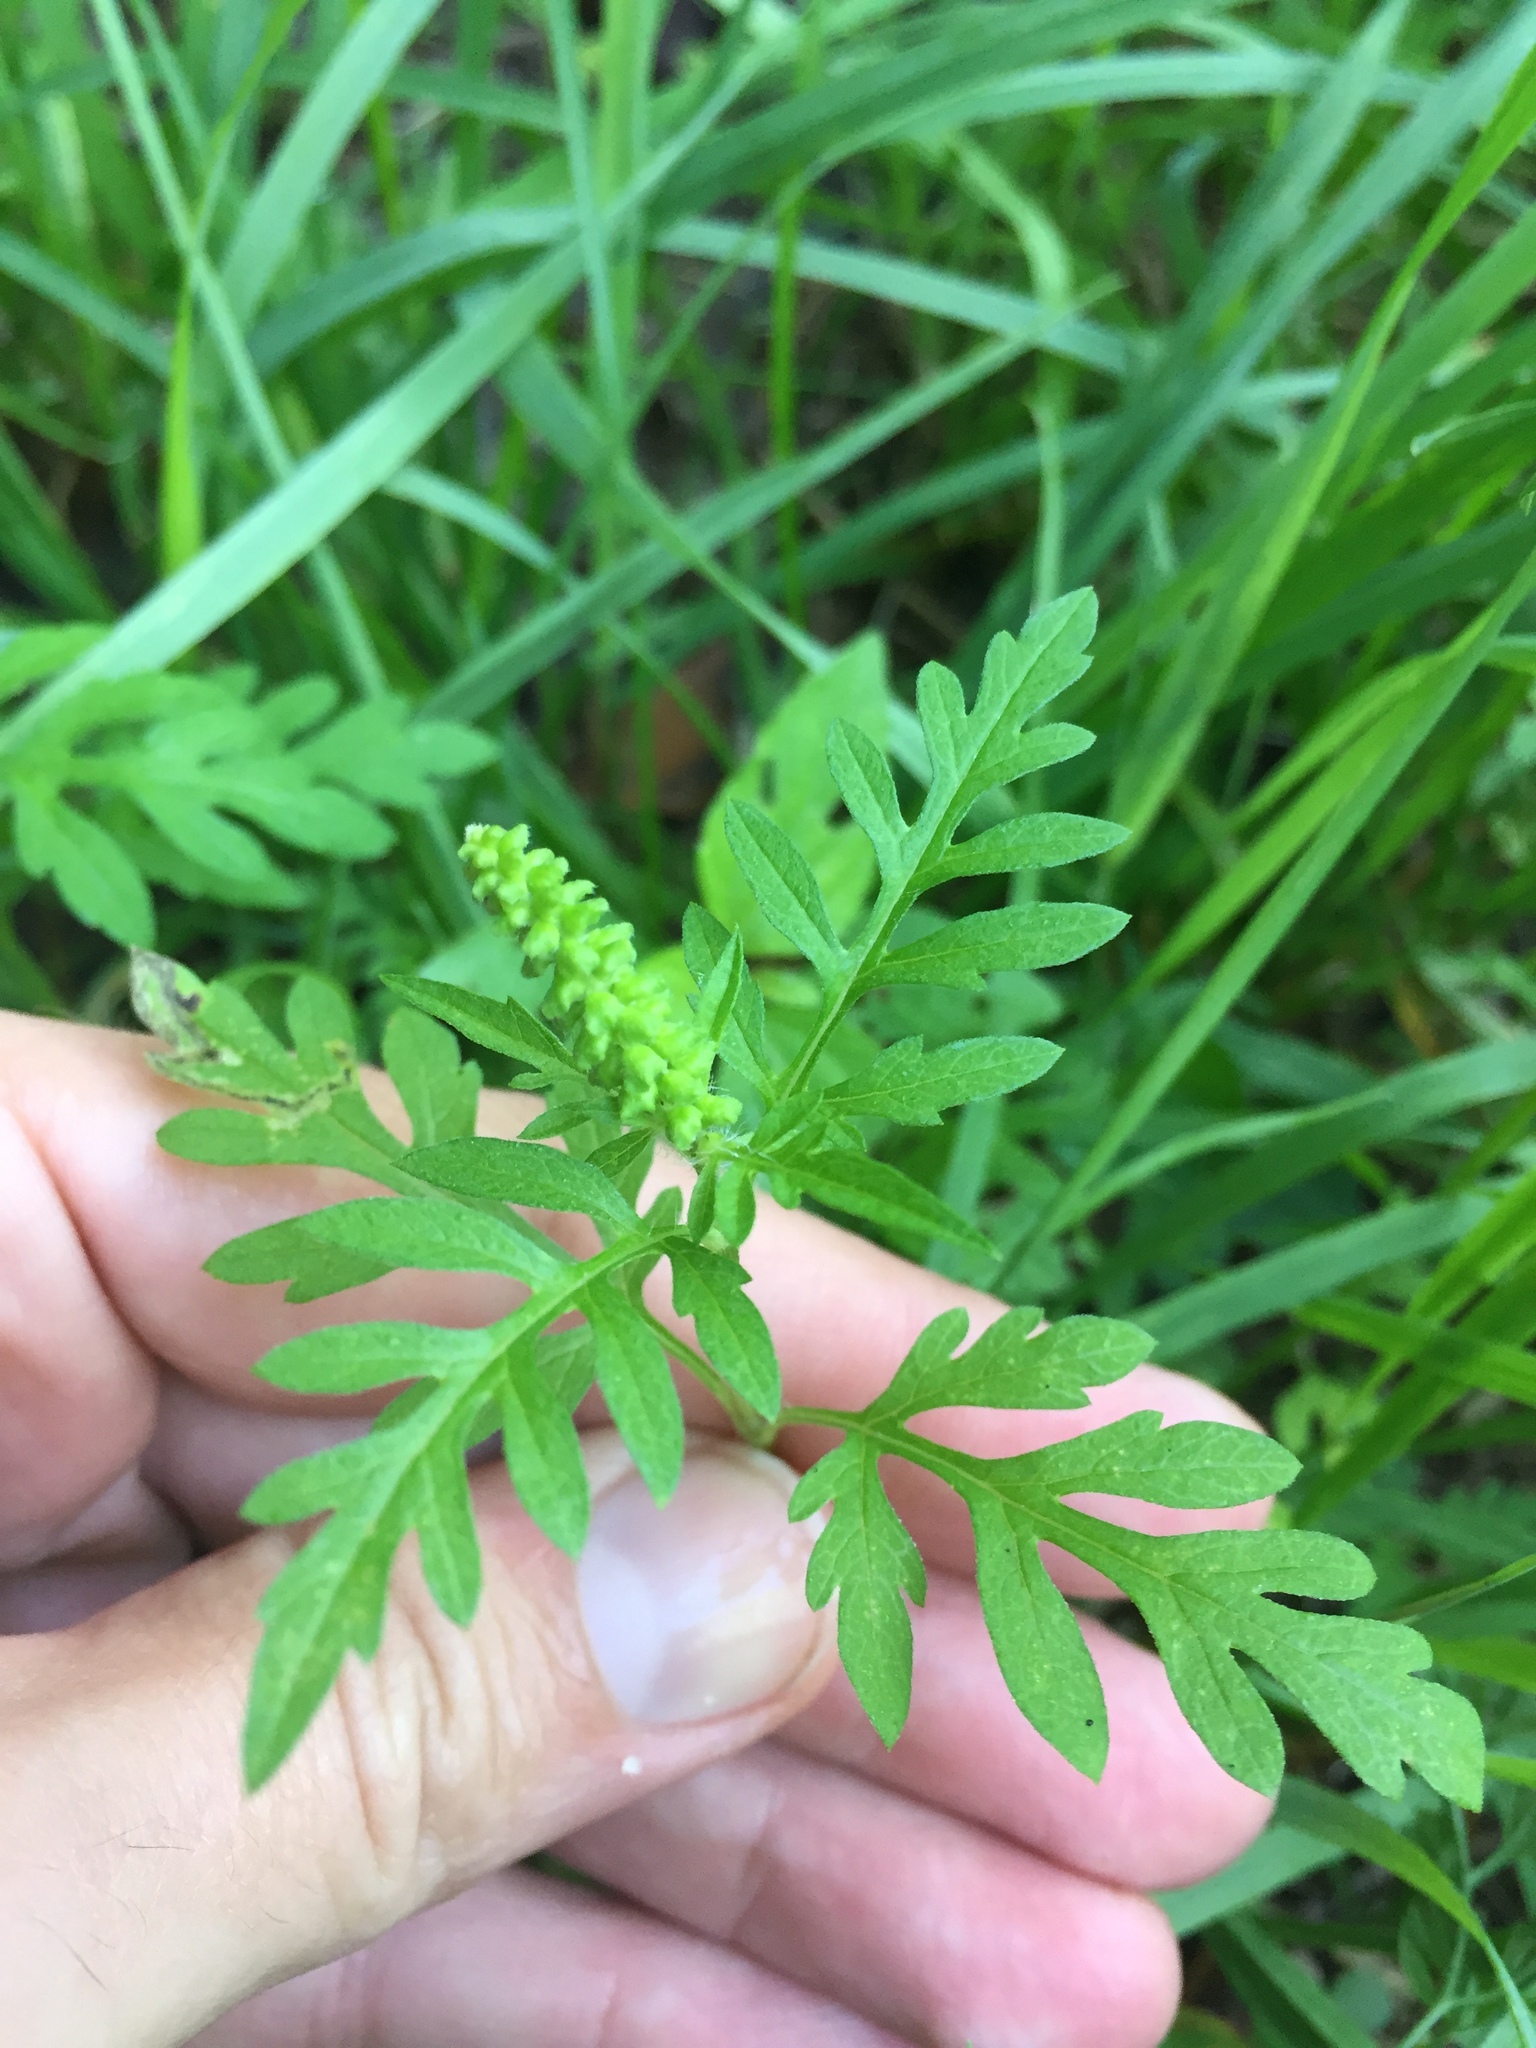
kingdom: Plantae
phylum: Tracheophyta
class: Magnoliopsida
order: Asterales
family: Asteraceae
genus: Ambrosia
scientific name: Ambrosia artemisiifolia
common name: Annual ragweed
